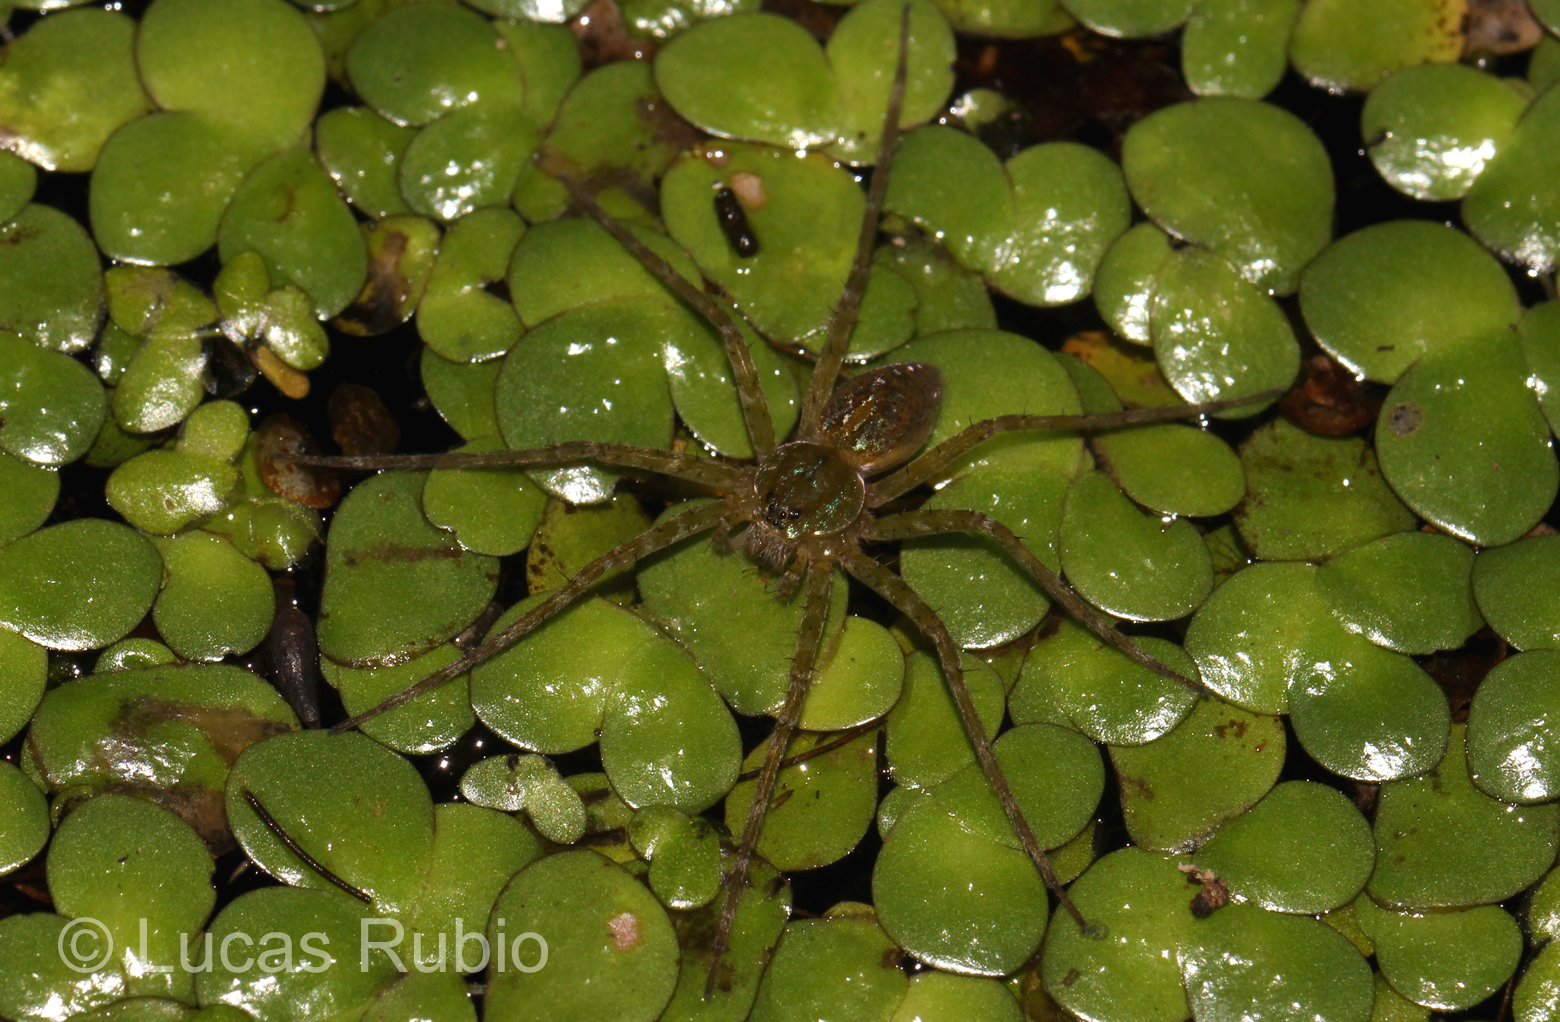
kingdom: Animalia
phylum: Arthropoda
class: Arachnida
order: Araneae
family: Pisauridae
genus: Thaumasia
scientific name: Thaumasia velox
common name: Nursery web spiders
